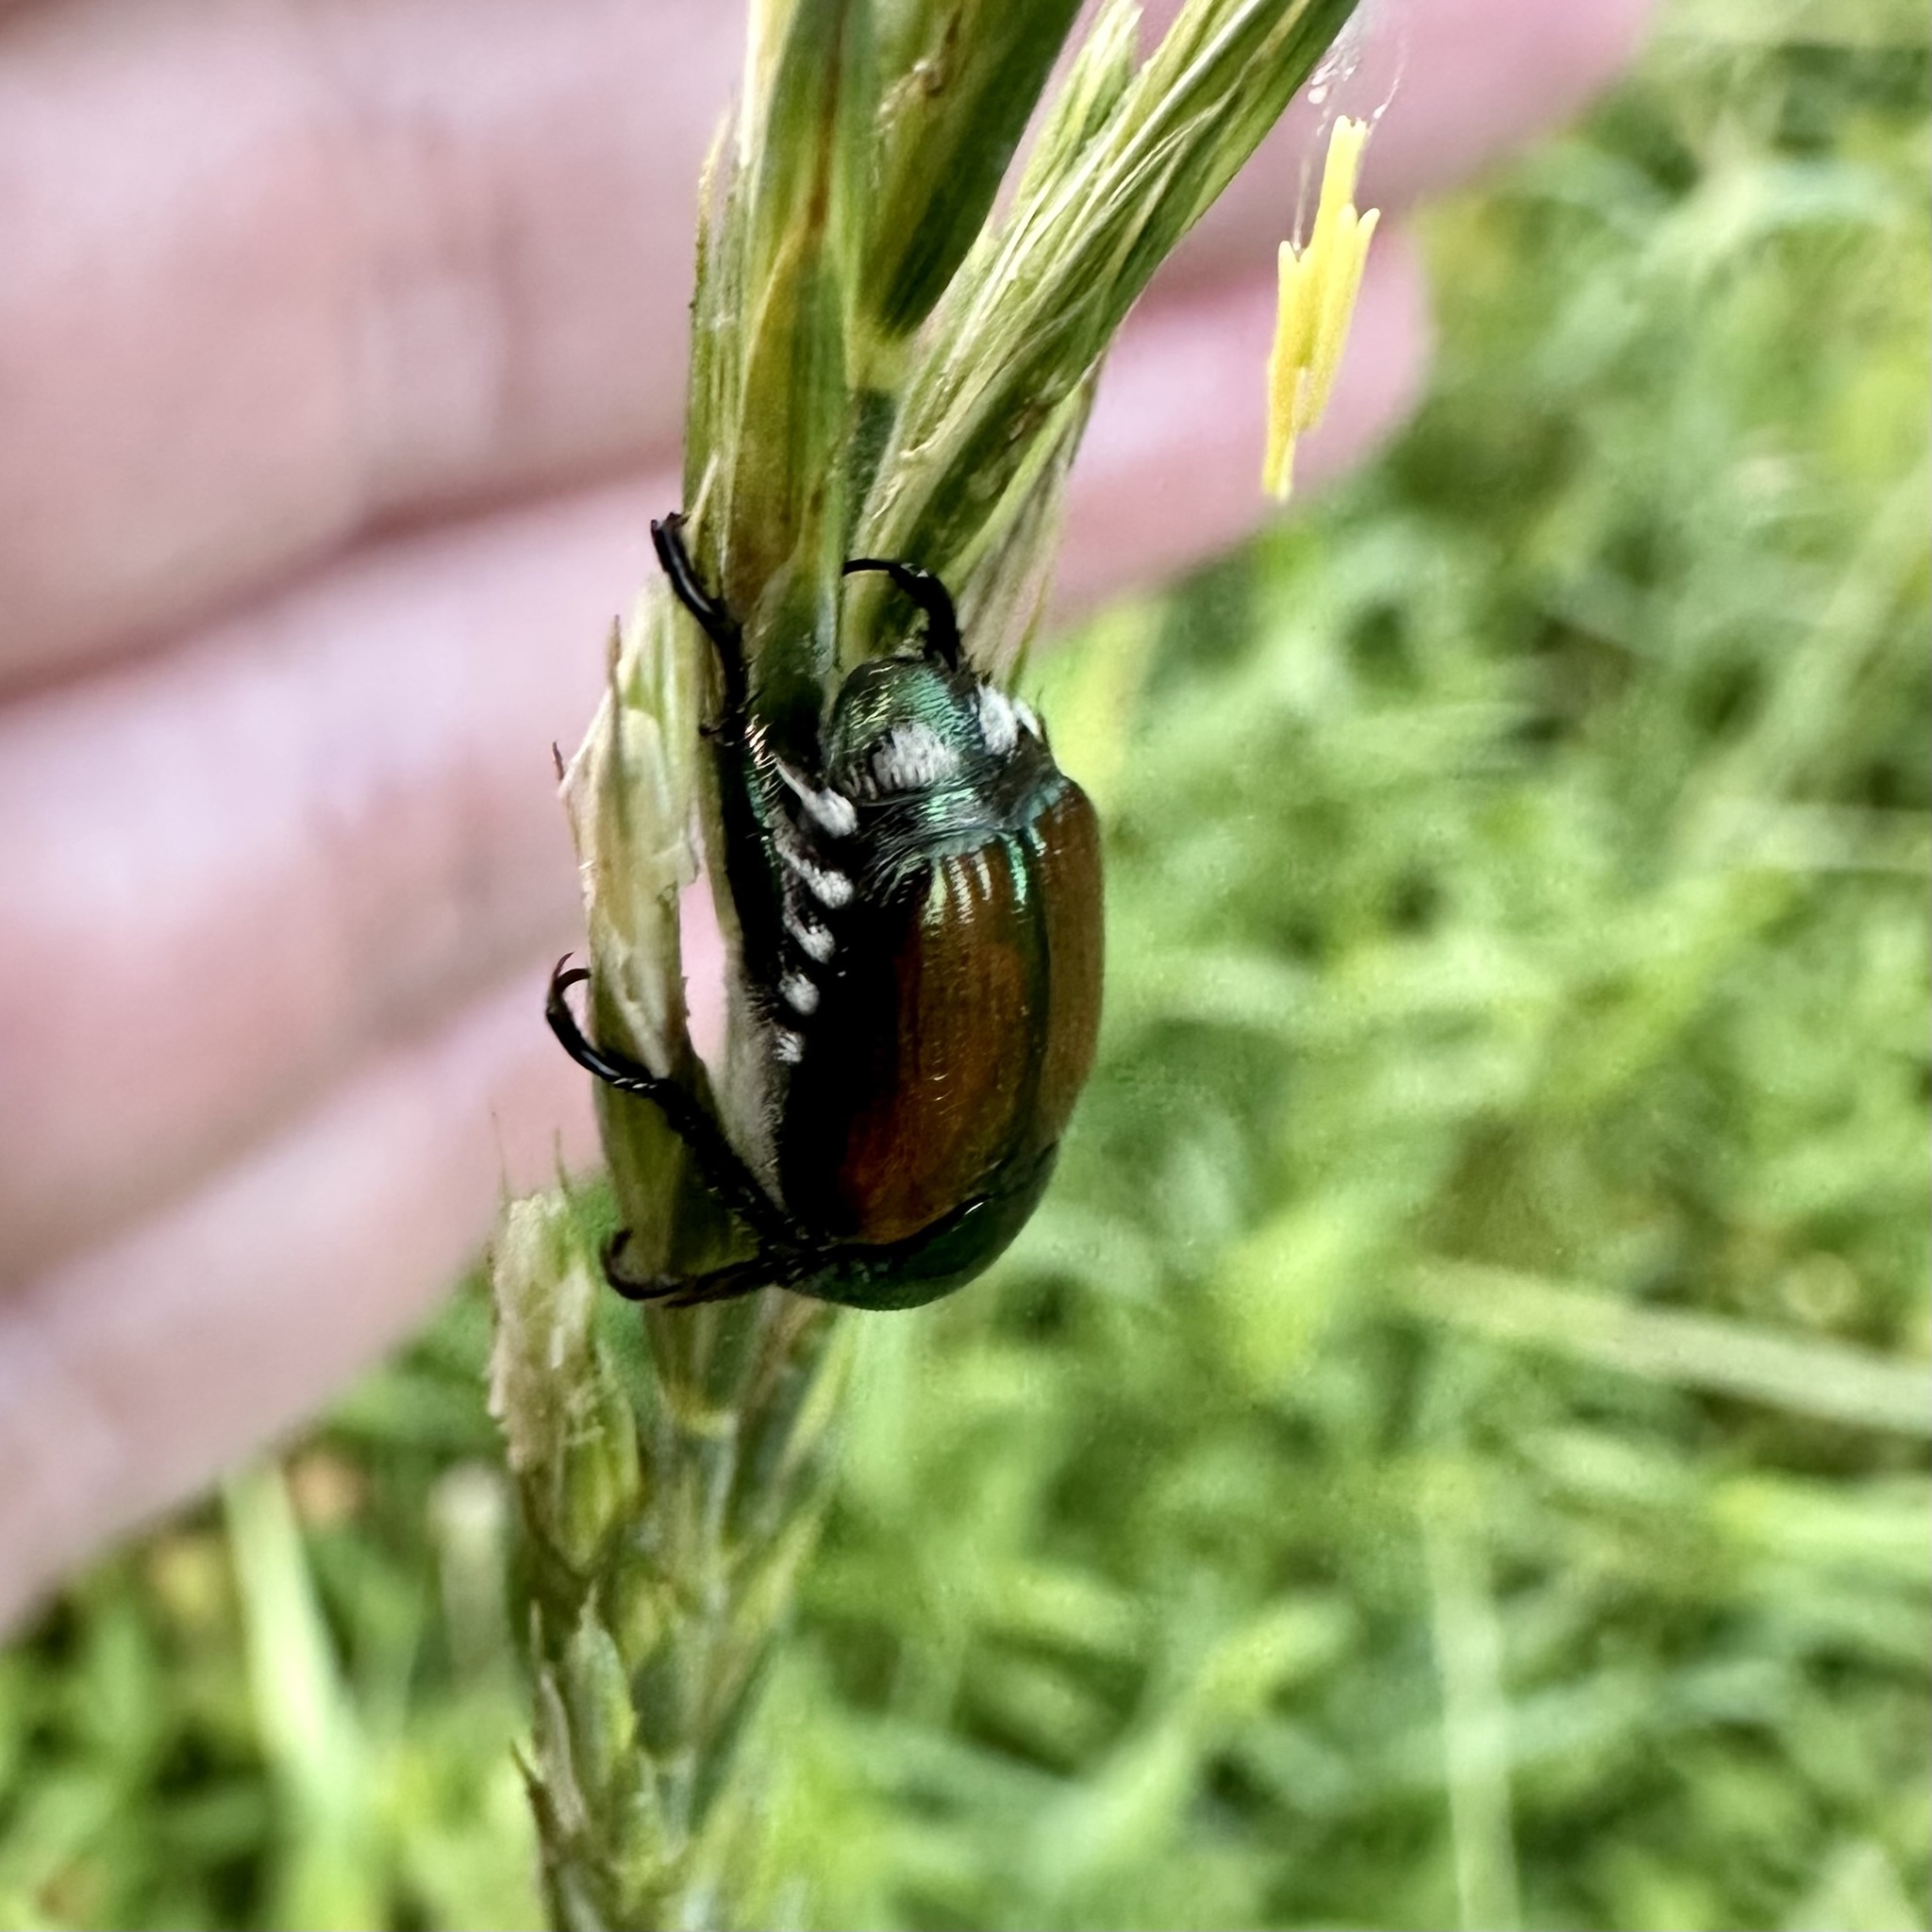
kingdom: Animalia
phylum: Arthropoda
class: Insecta
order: Coleoptera
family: Scarabaeidae
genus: Popillia
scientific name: Popillia japonica
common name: Japanese beetle
